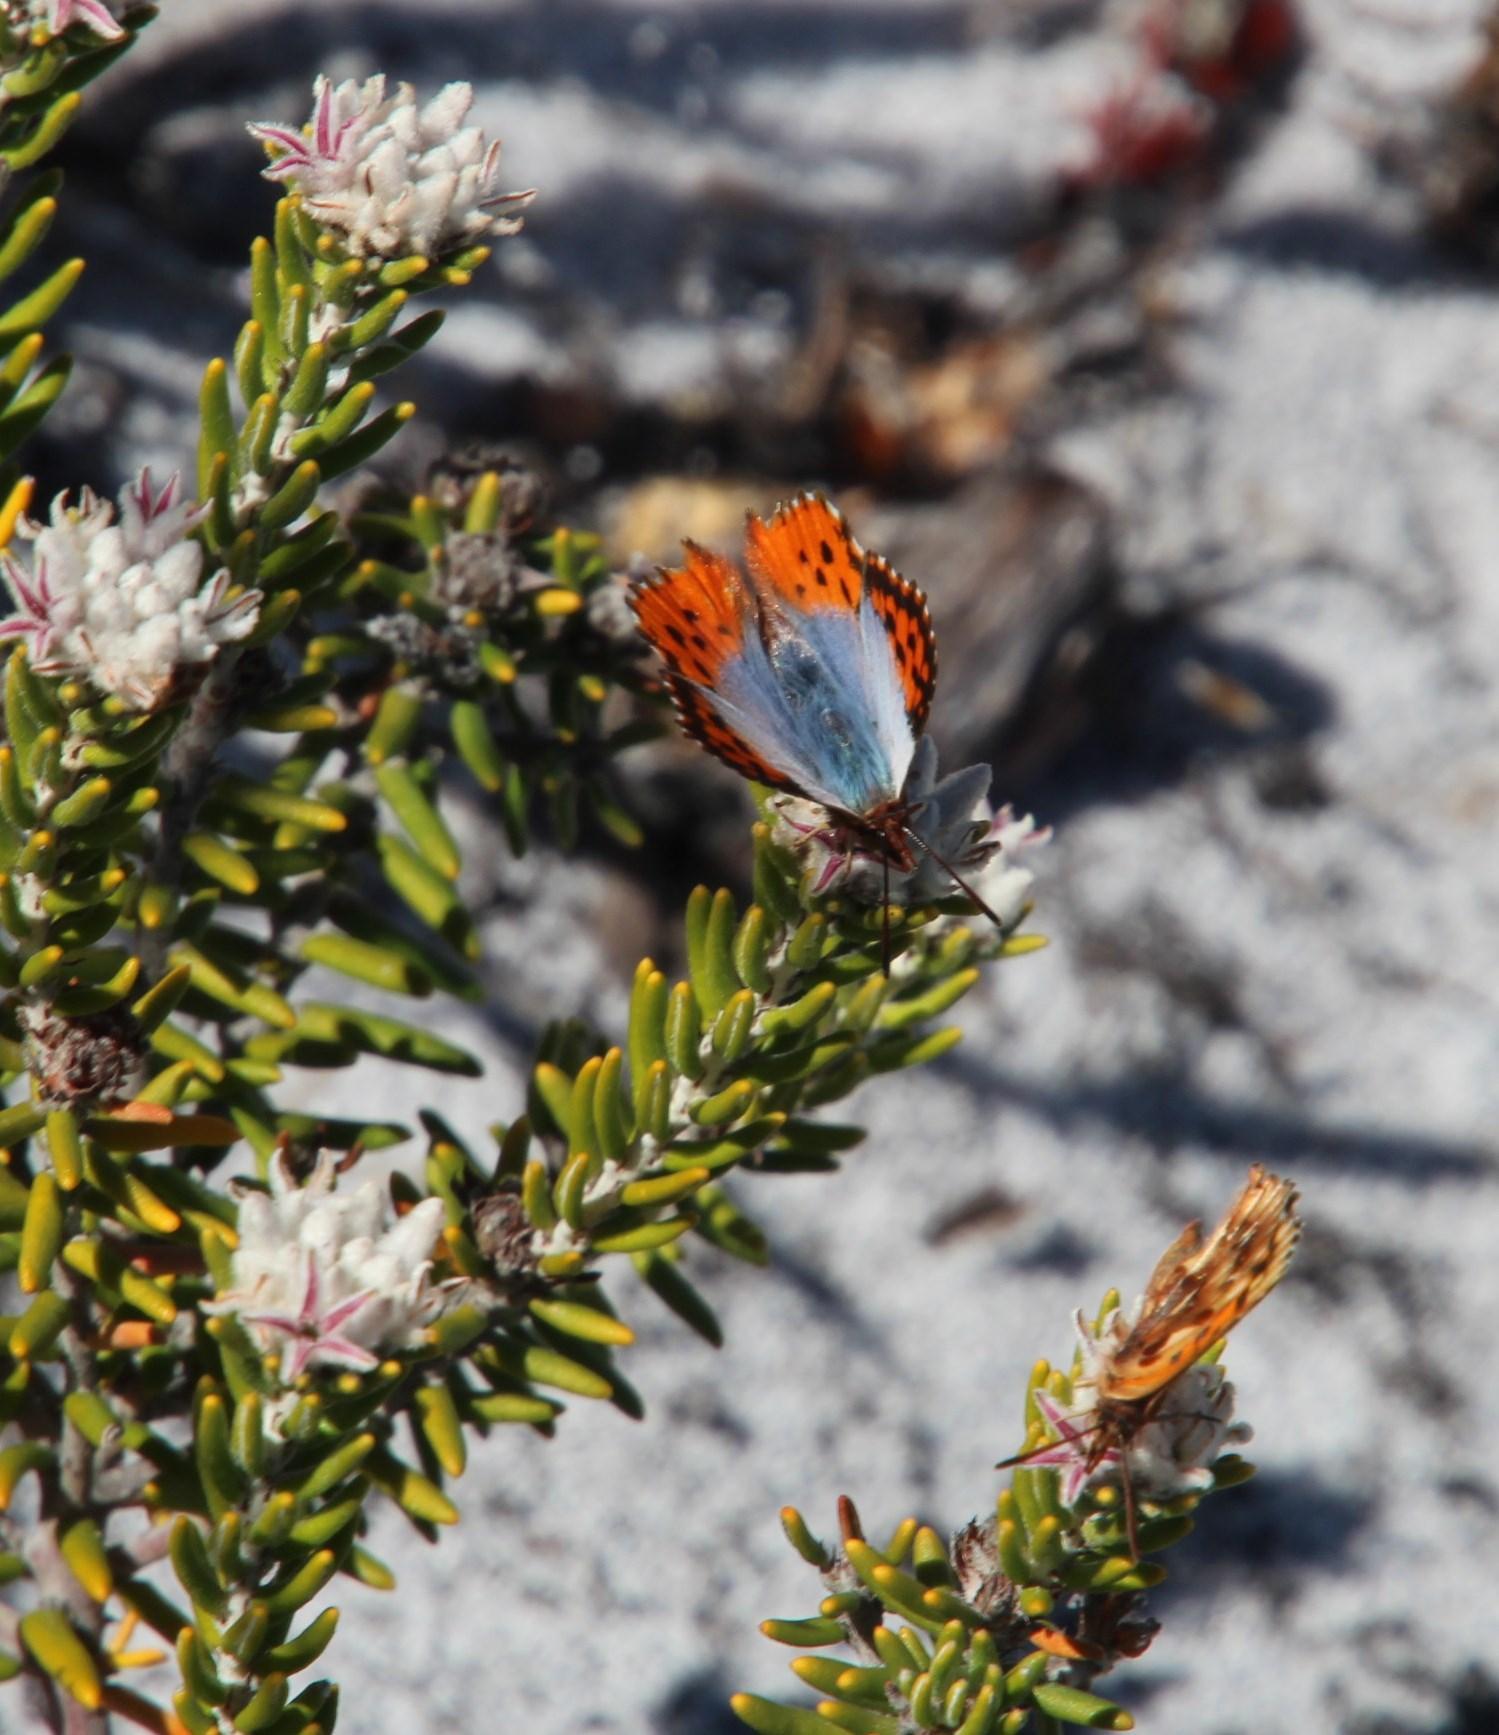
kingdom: Plantae
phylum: Tracheophyta
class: Magnoliopsida
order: Rosales
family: Rhamnaceae
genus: Trichocephalus
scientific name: Trichocephalus stipularis
